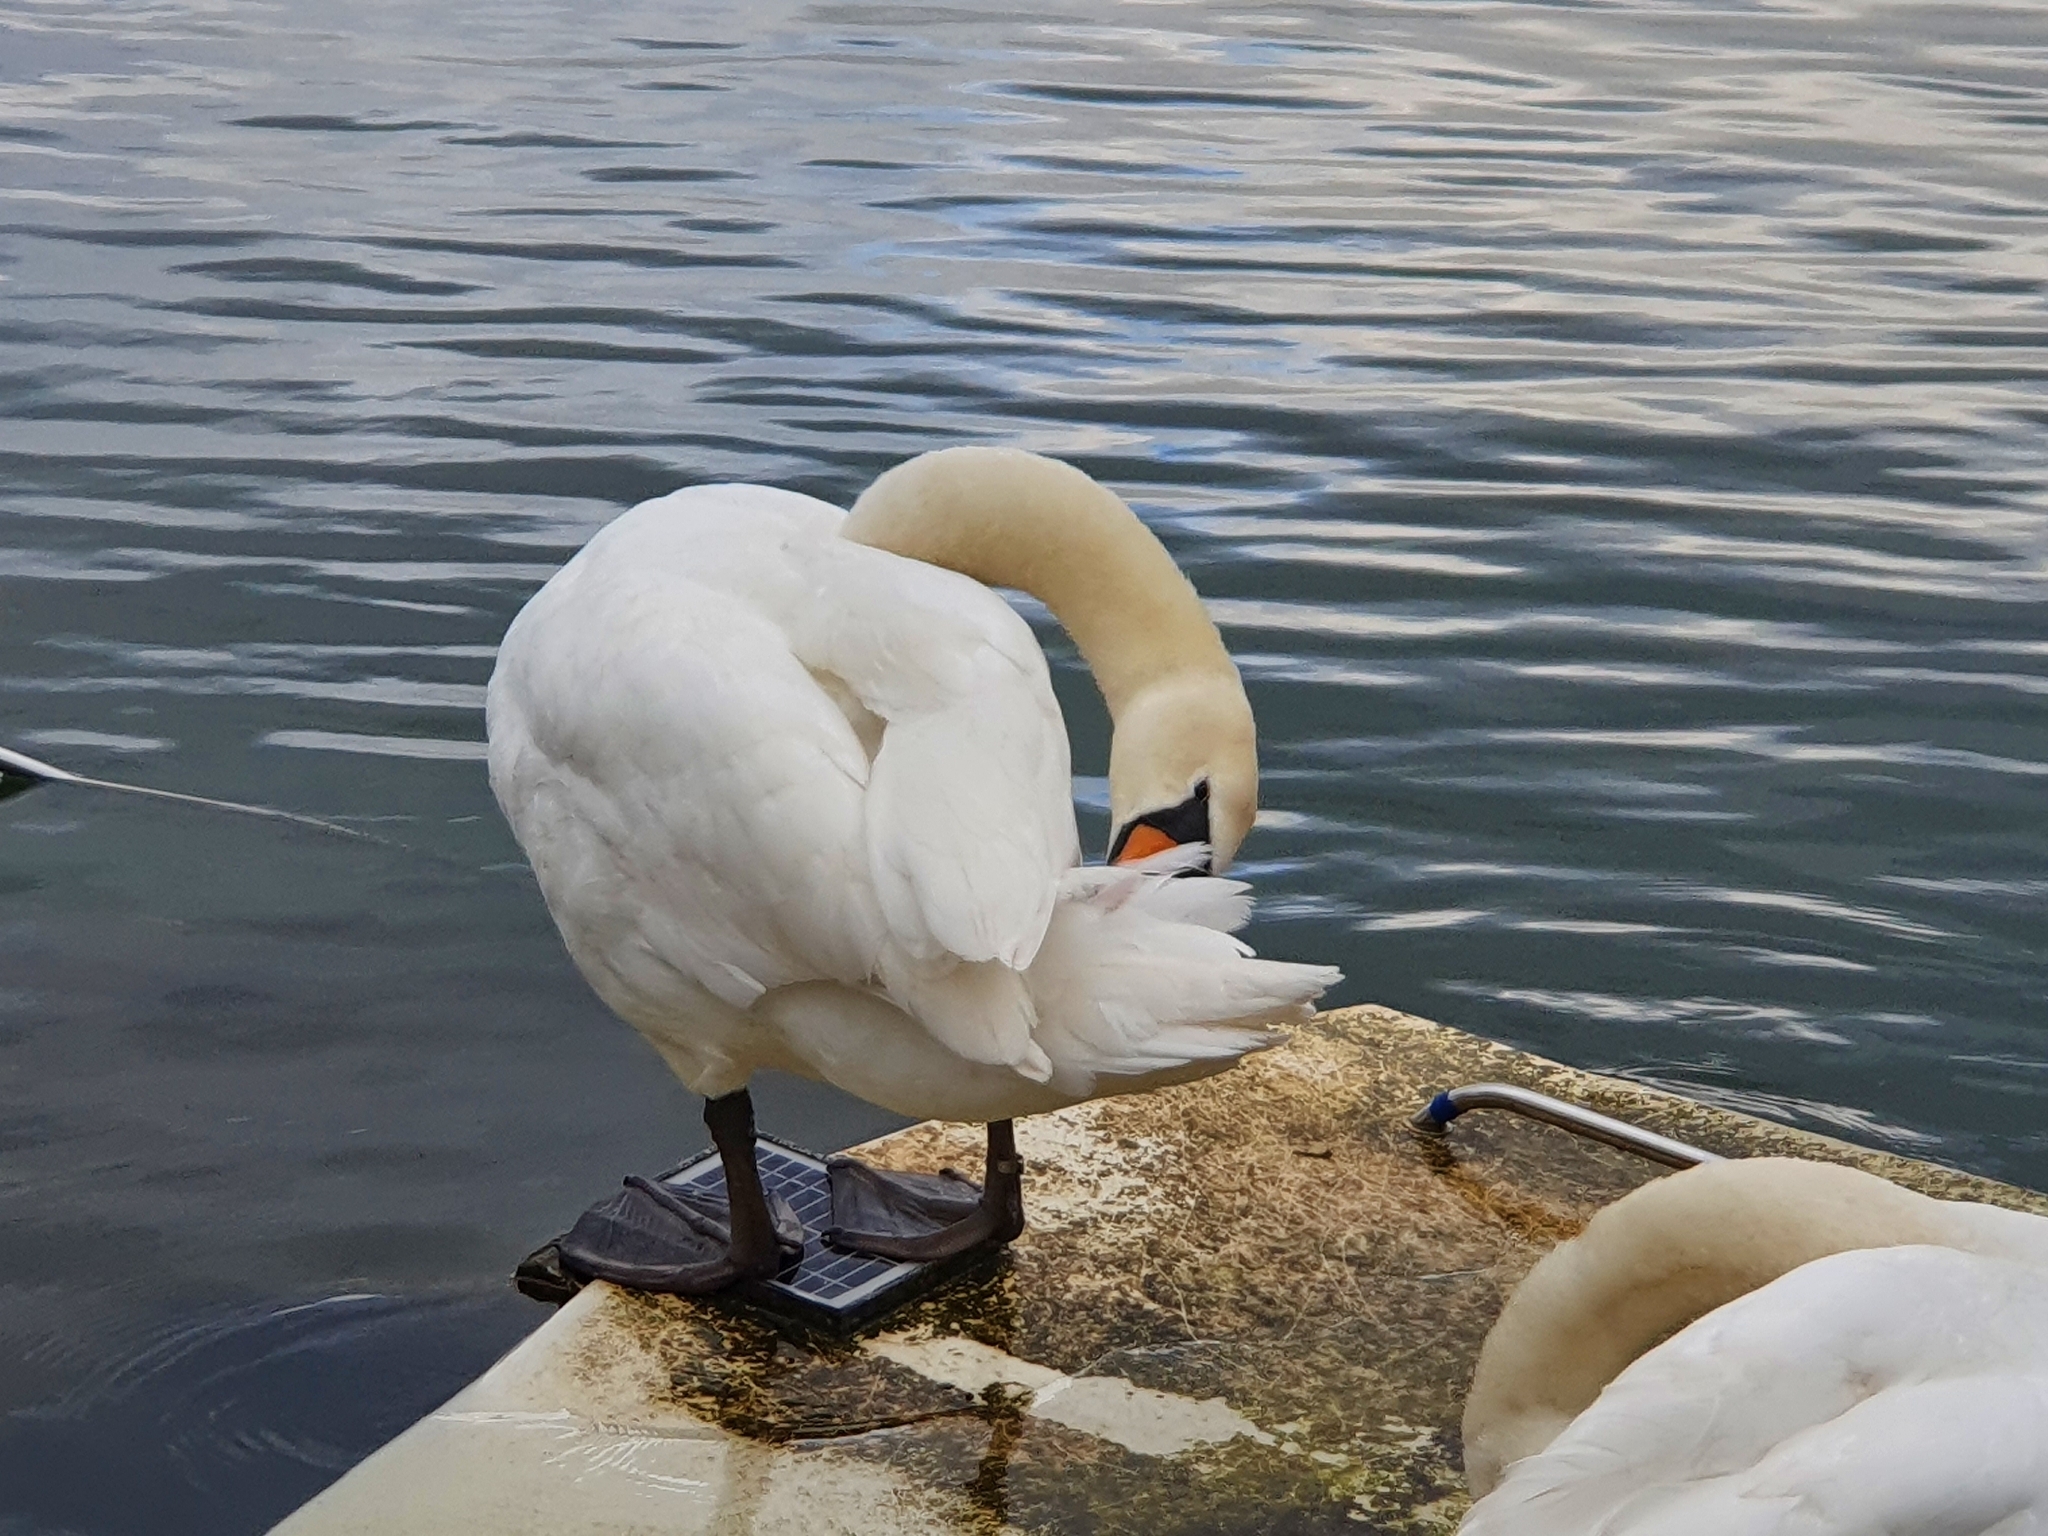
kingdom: Animalia
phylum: Chordata
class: Aves
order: Anseriformes
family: Anatidae
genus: Cygnus
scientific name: Cygnus olor
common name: Mute swan
